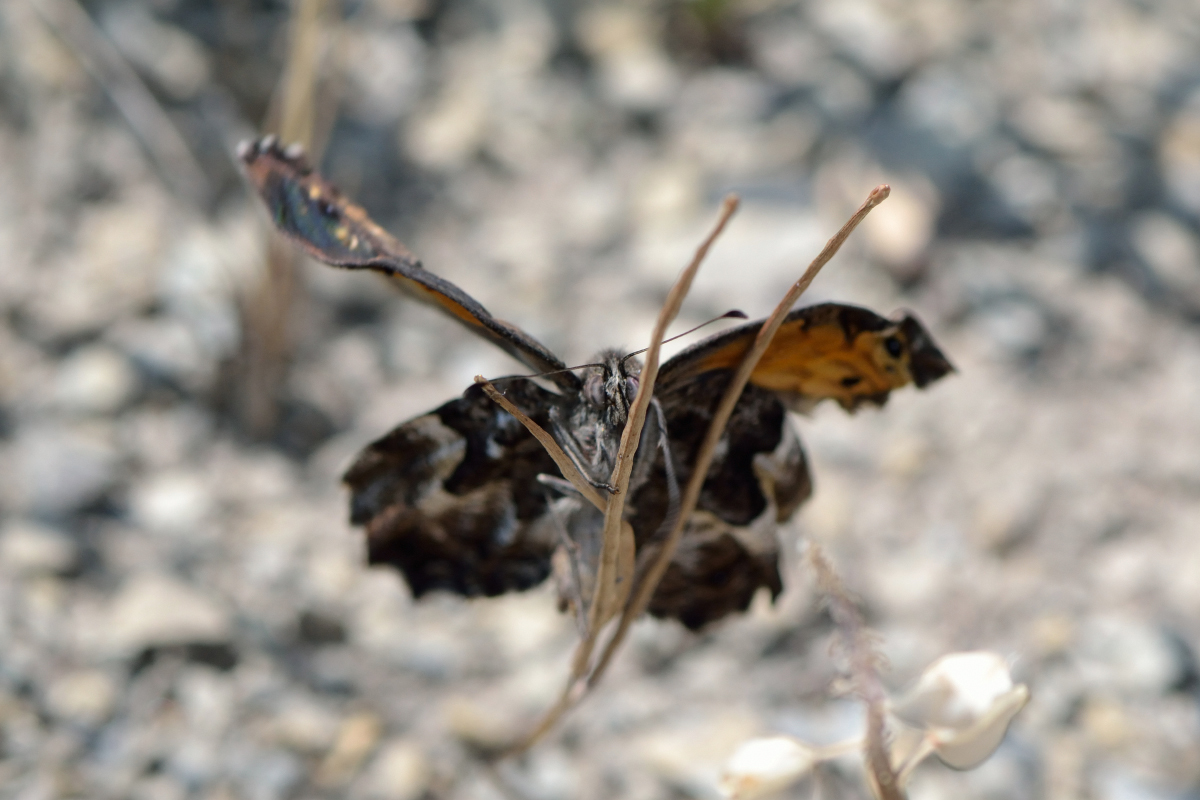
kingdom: Animalia
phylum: Arthropoda
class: Insecta
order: Lepidoptera
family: Nymphalidae
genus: Hipparchia
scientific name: Hipparchia pellucida
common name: Lesbos grayling
